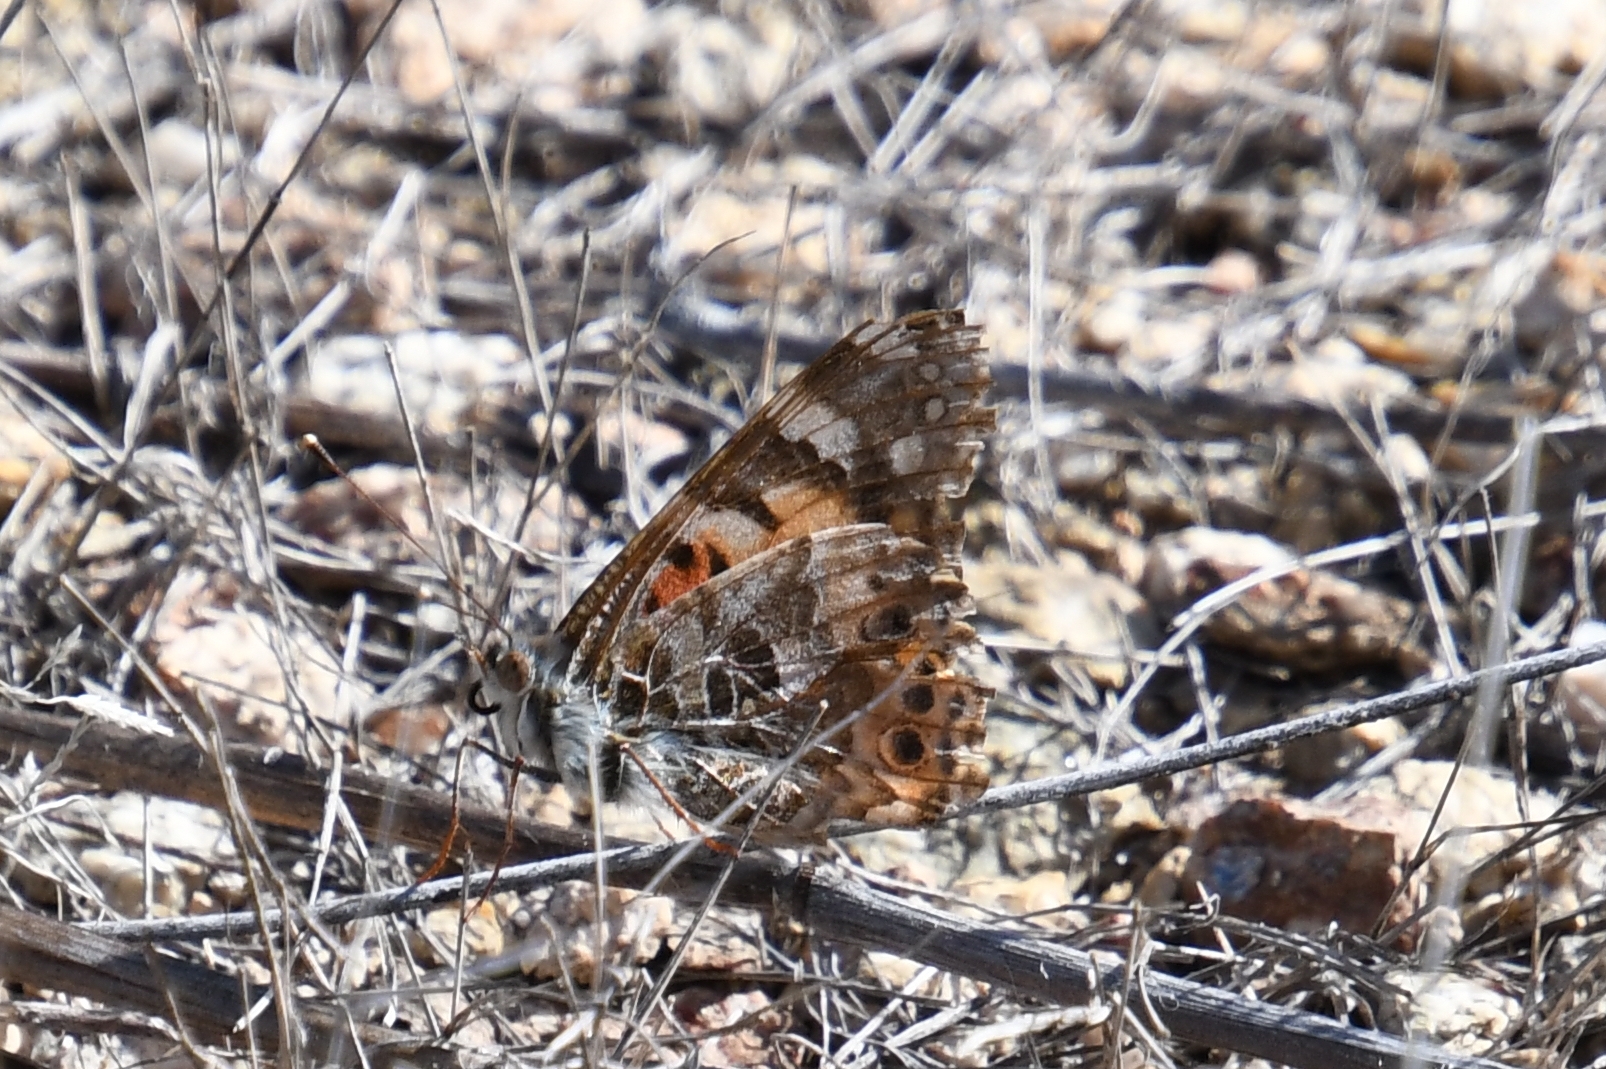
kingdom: Animalia
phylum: Arthropoda
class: Insecta
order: Lepidoptera
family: Nymphalidae
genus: Vanessa
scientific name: Vanessa cardui
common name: Painted lady
